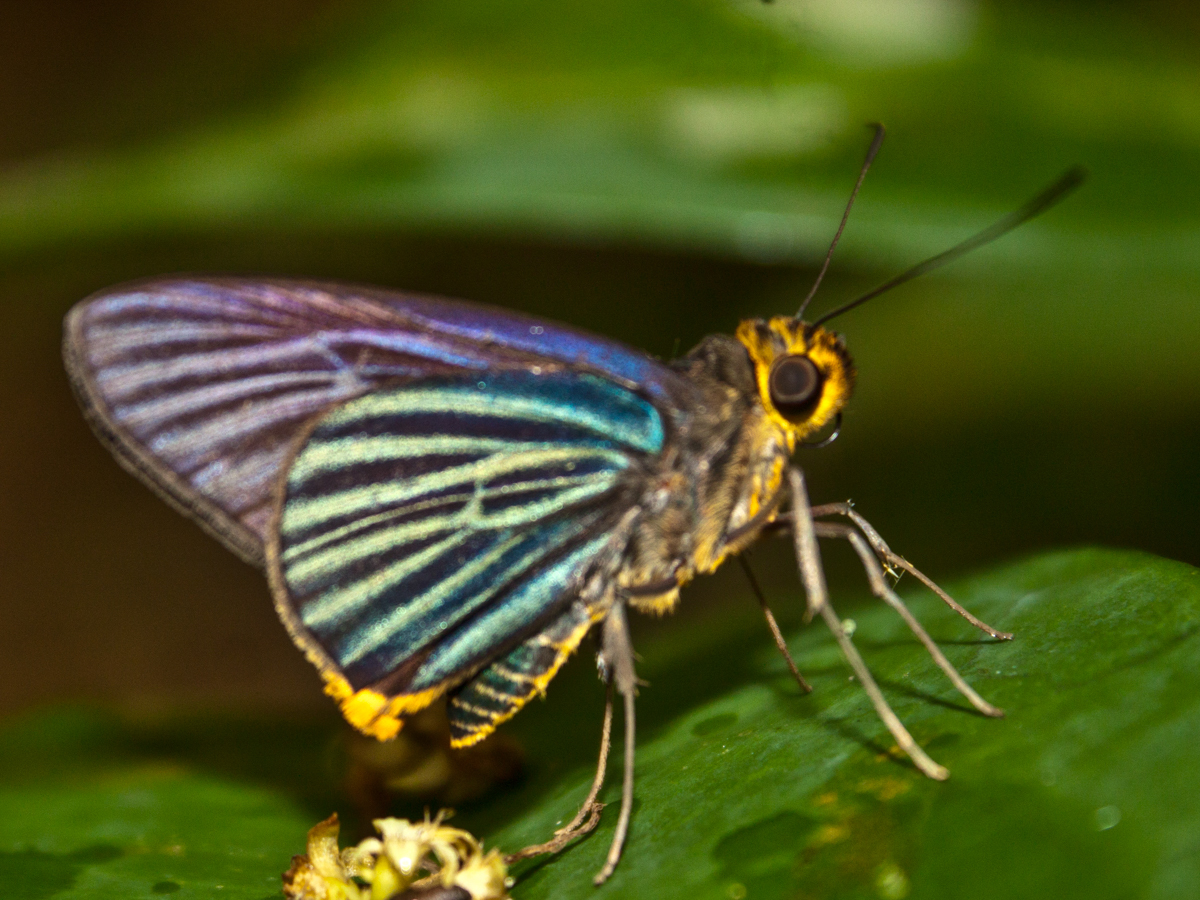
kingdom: Animalia
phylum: Arthropoda
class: Insecta
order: Lepidoptera
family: Hesperiidae
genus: Pirdana
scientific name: Pirdana hyela
